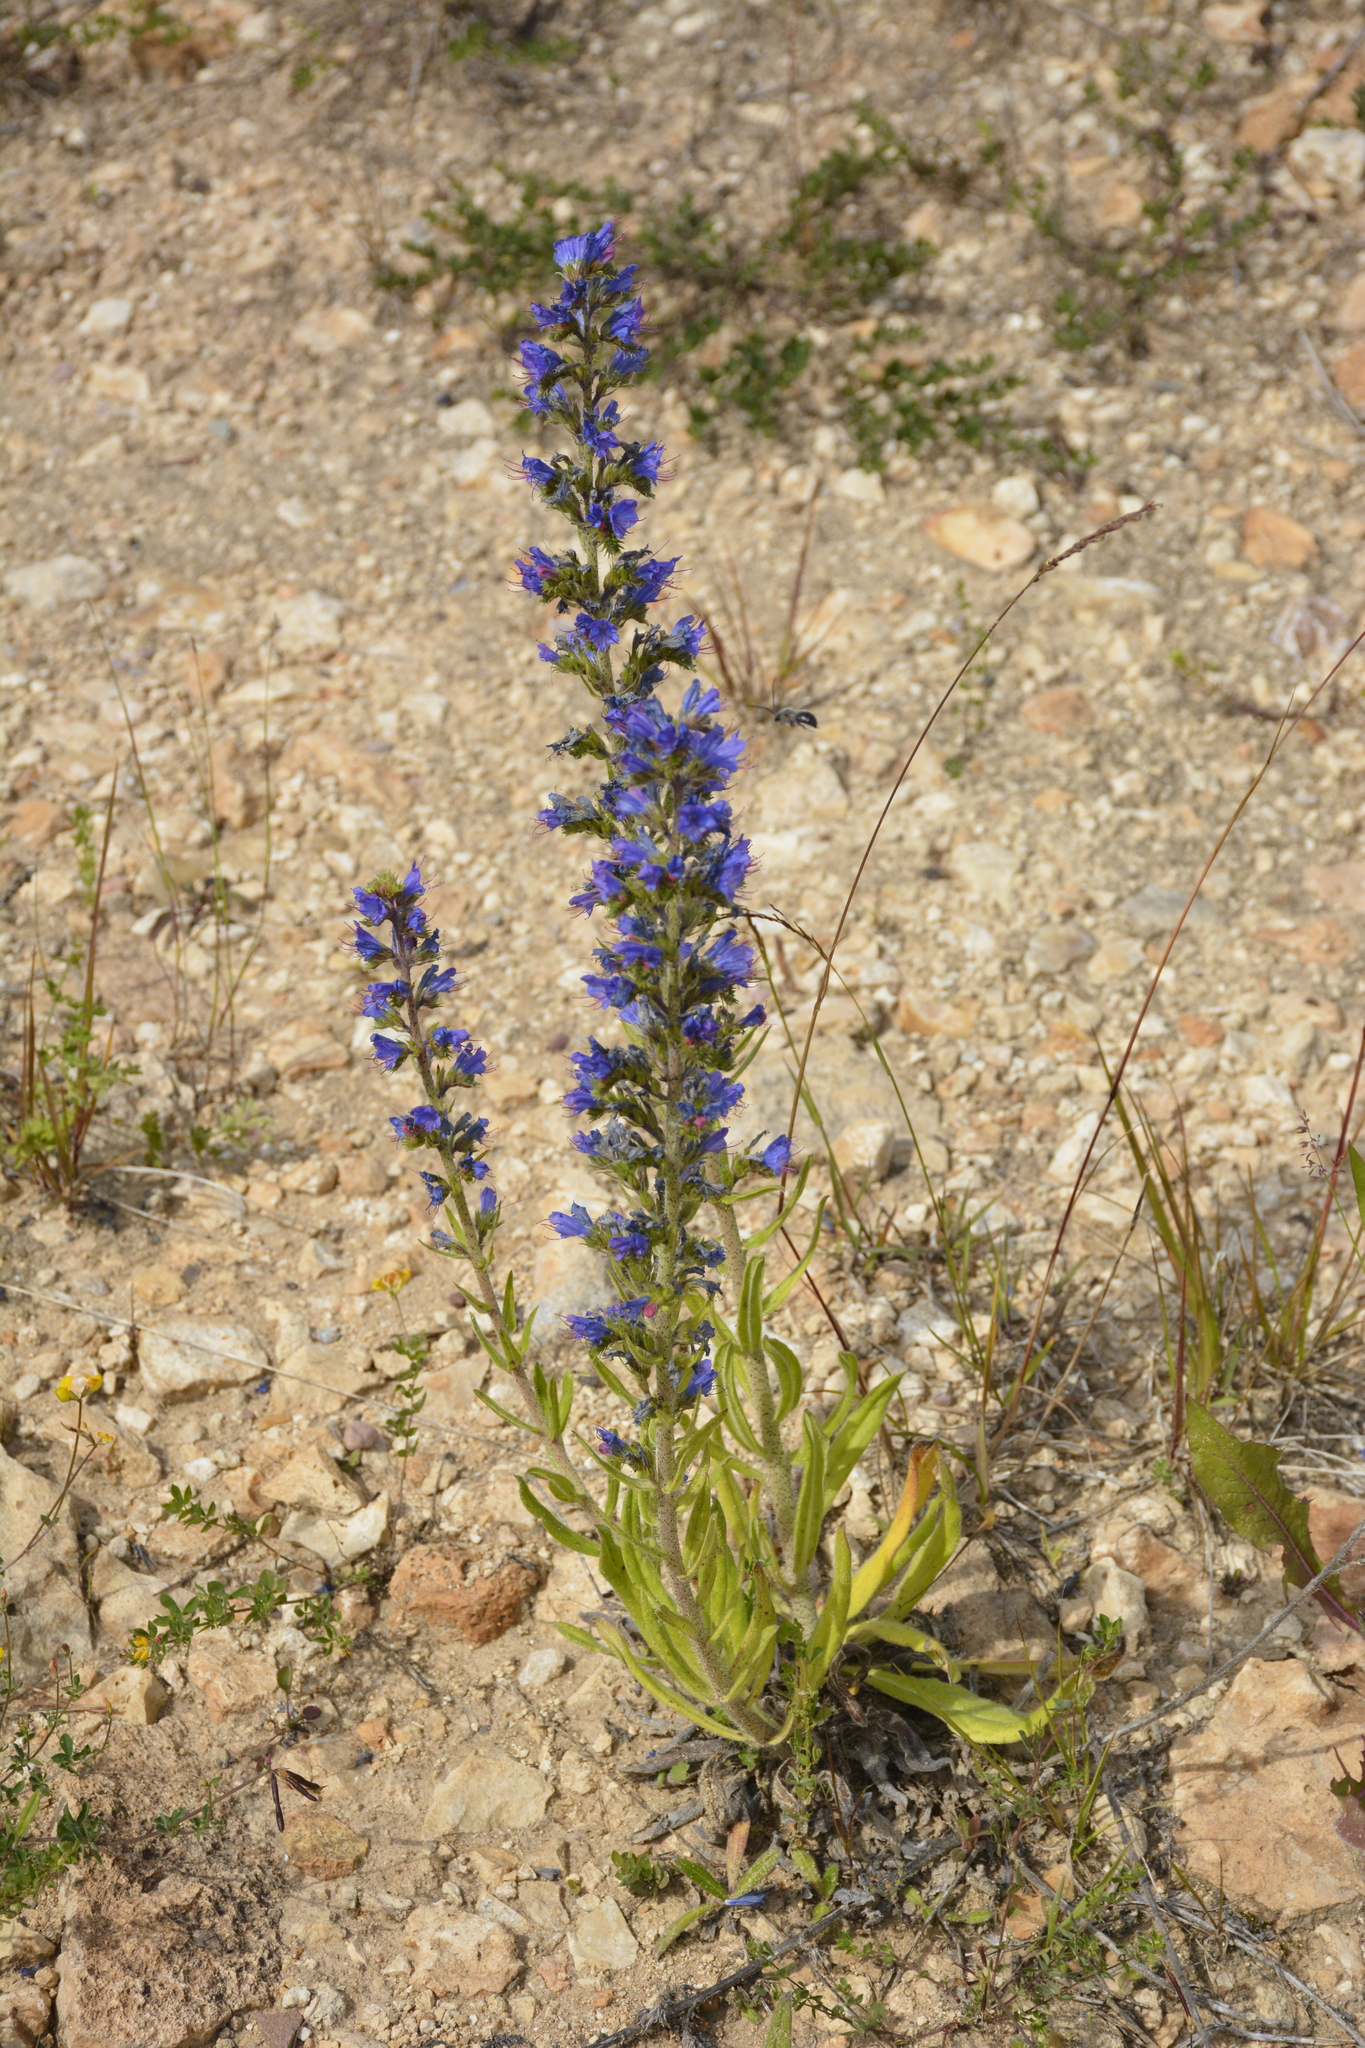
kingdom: Plantae
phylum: Tracheophyta
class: Magnoliopsida
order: Boraginales
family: Boraginaceae
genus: Echium
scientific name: Echium vulgare
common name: Common viper's bugloss
